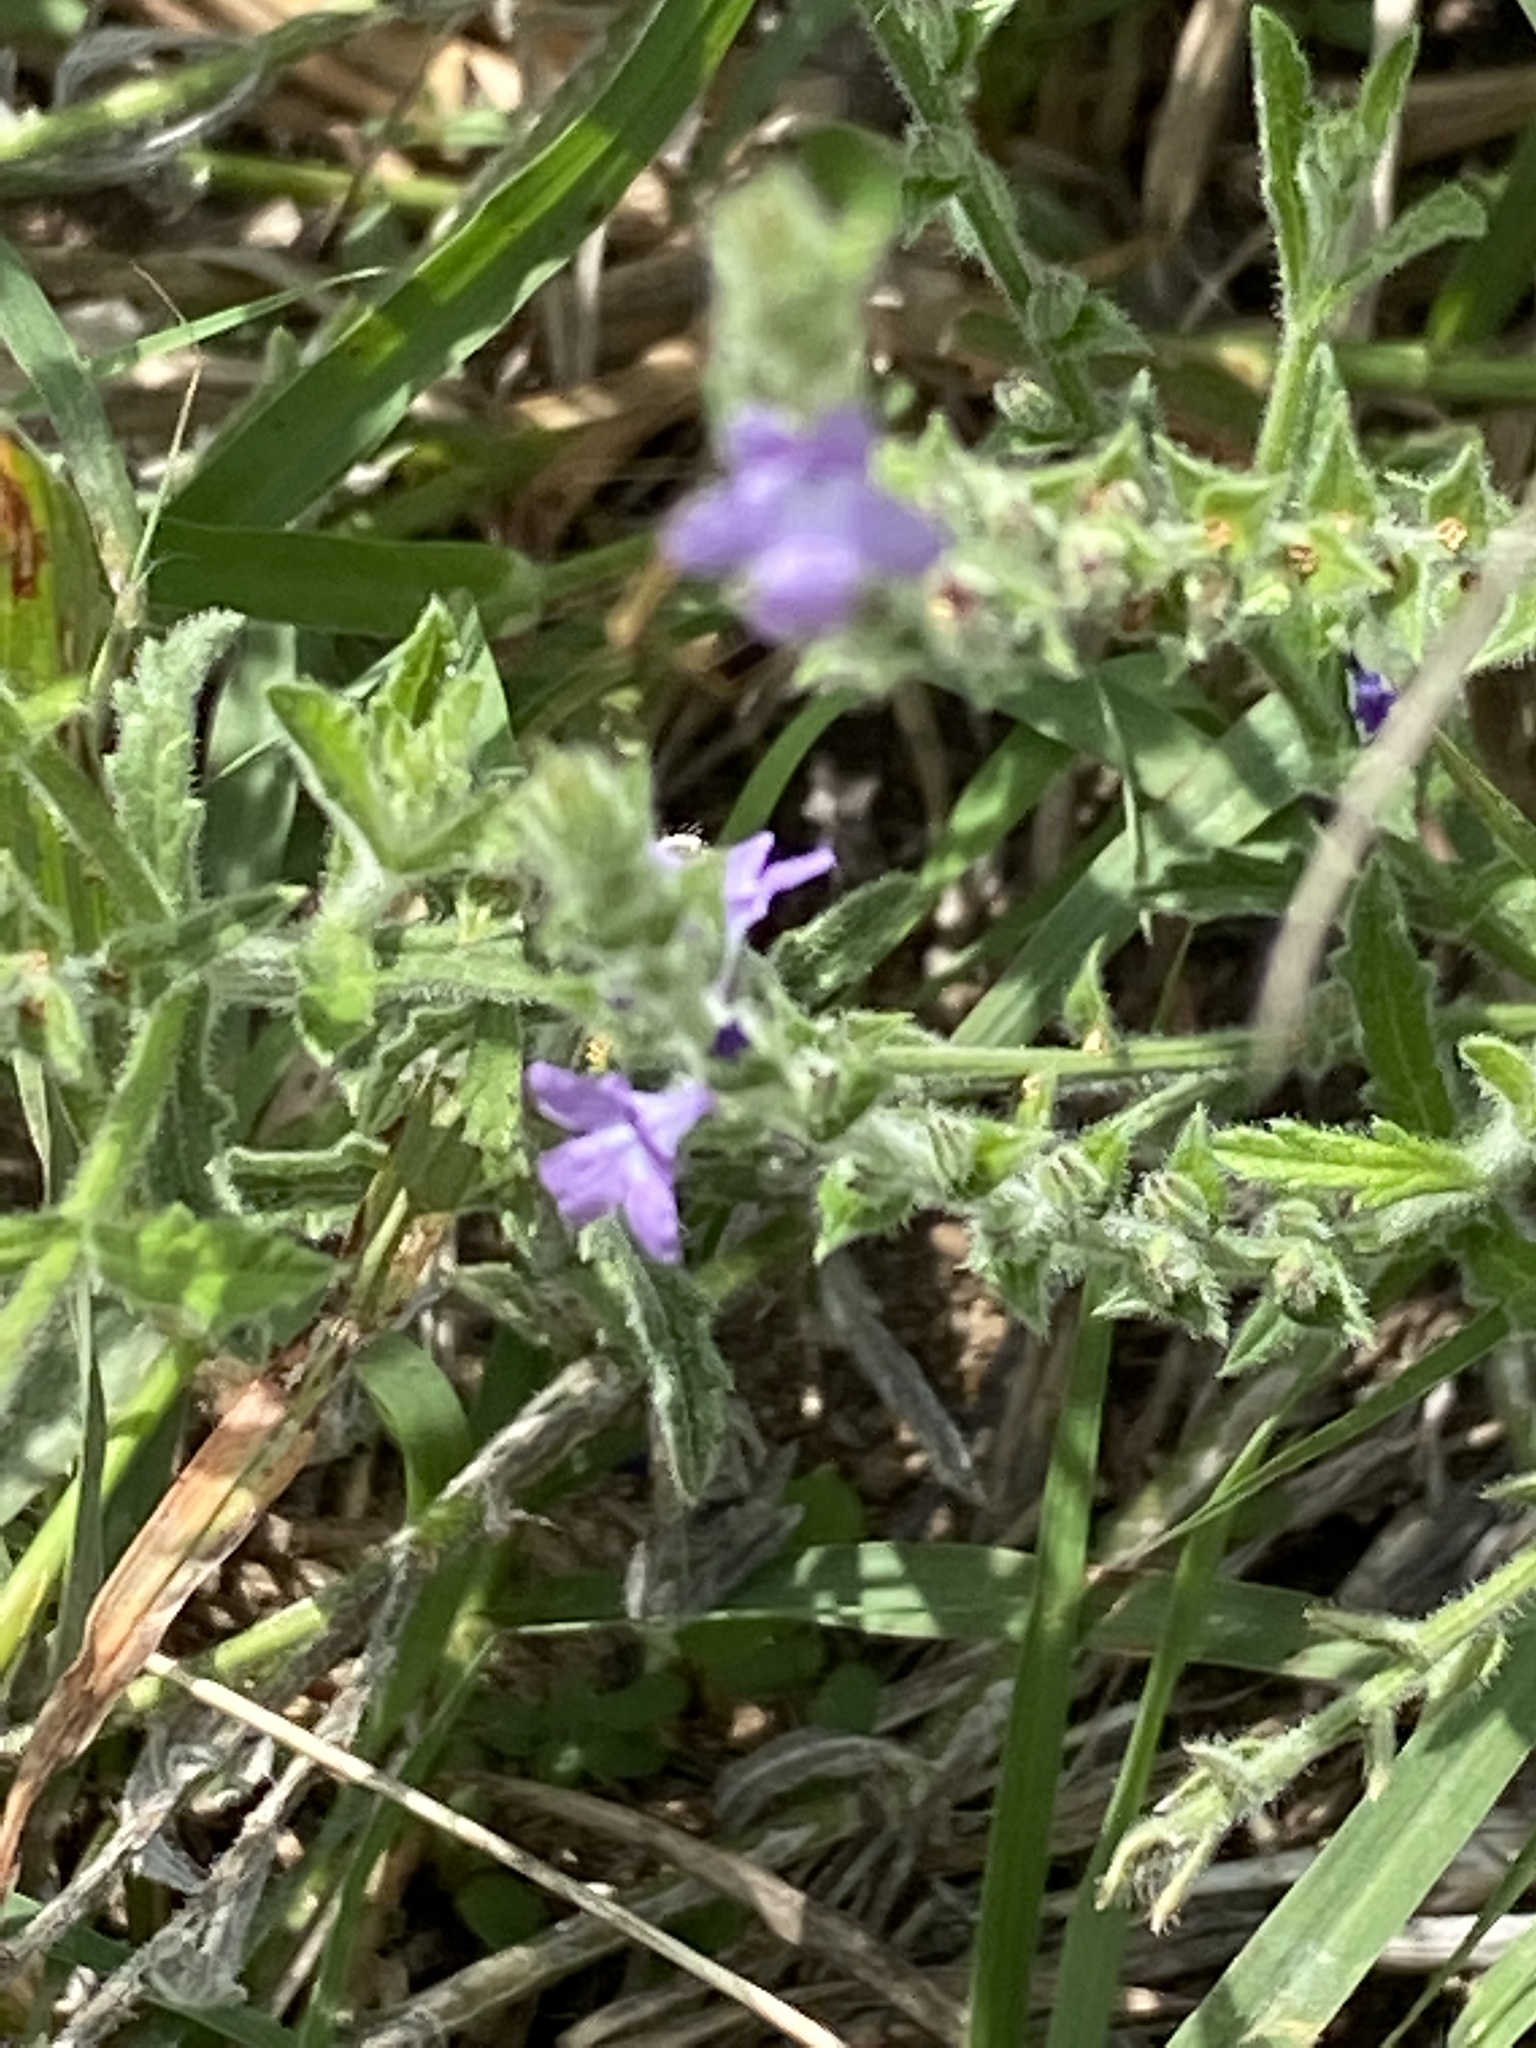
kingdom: Plantae
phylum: Tracheophyta
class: Magnoliopsida
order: Lamiales
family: Verbenaceae
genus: Verbena
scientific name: Verbena canescens
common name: Gray vervain
